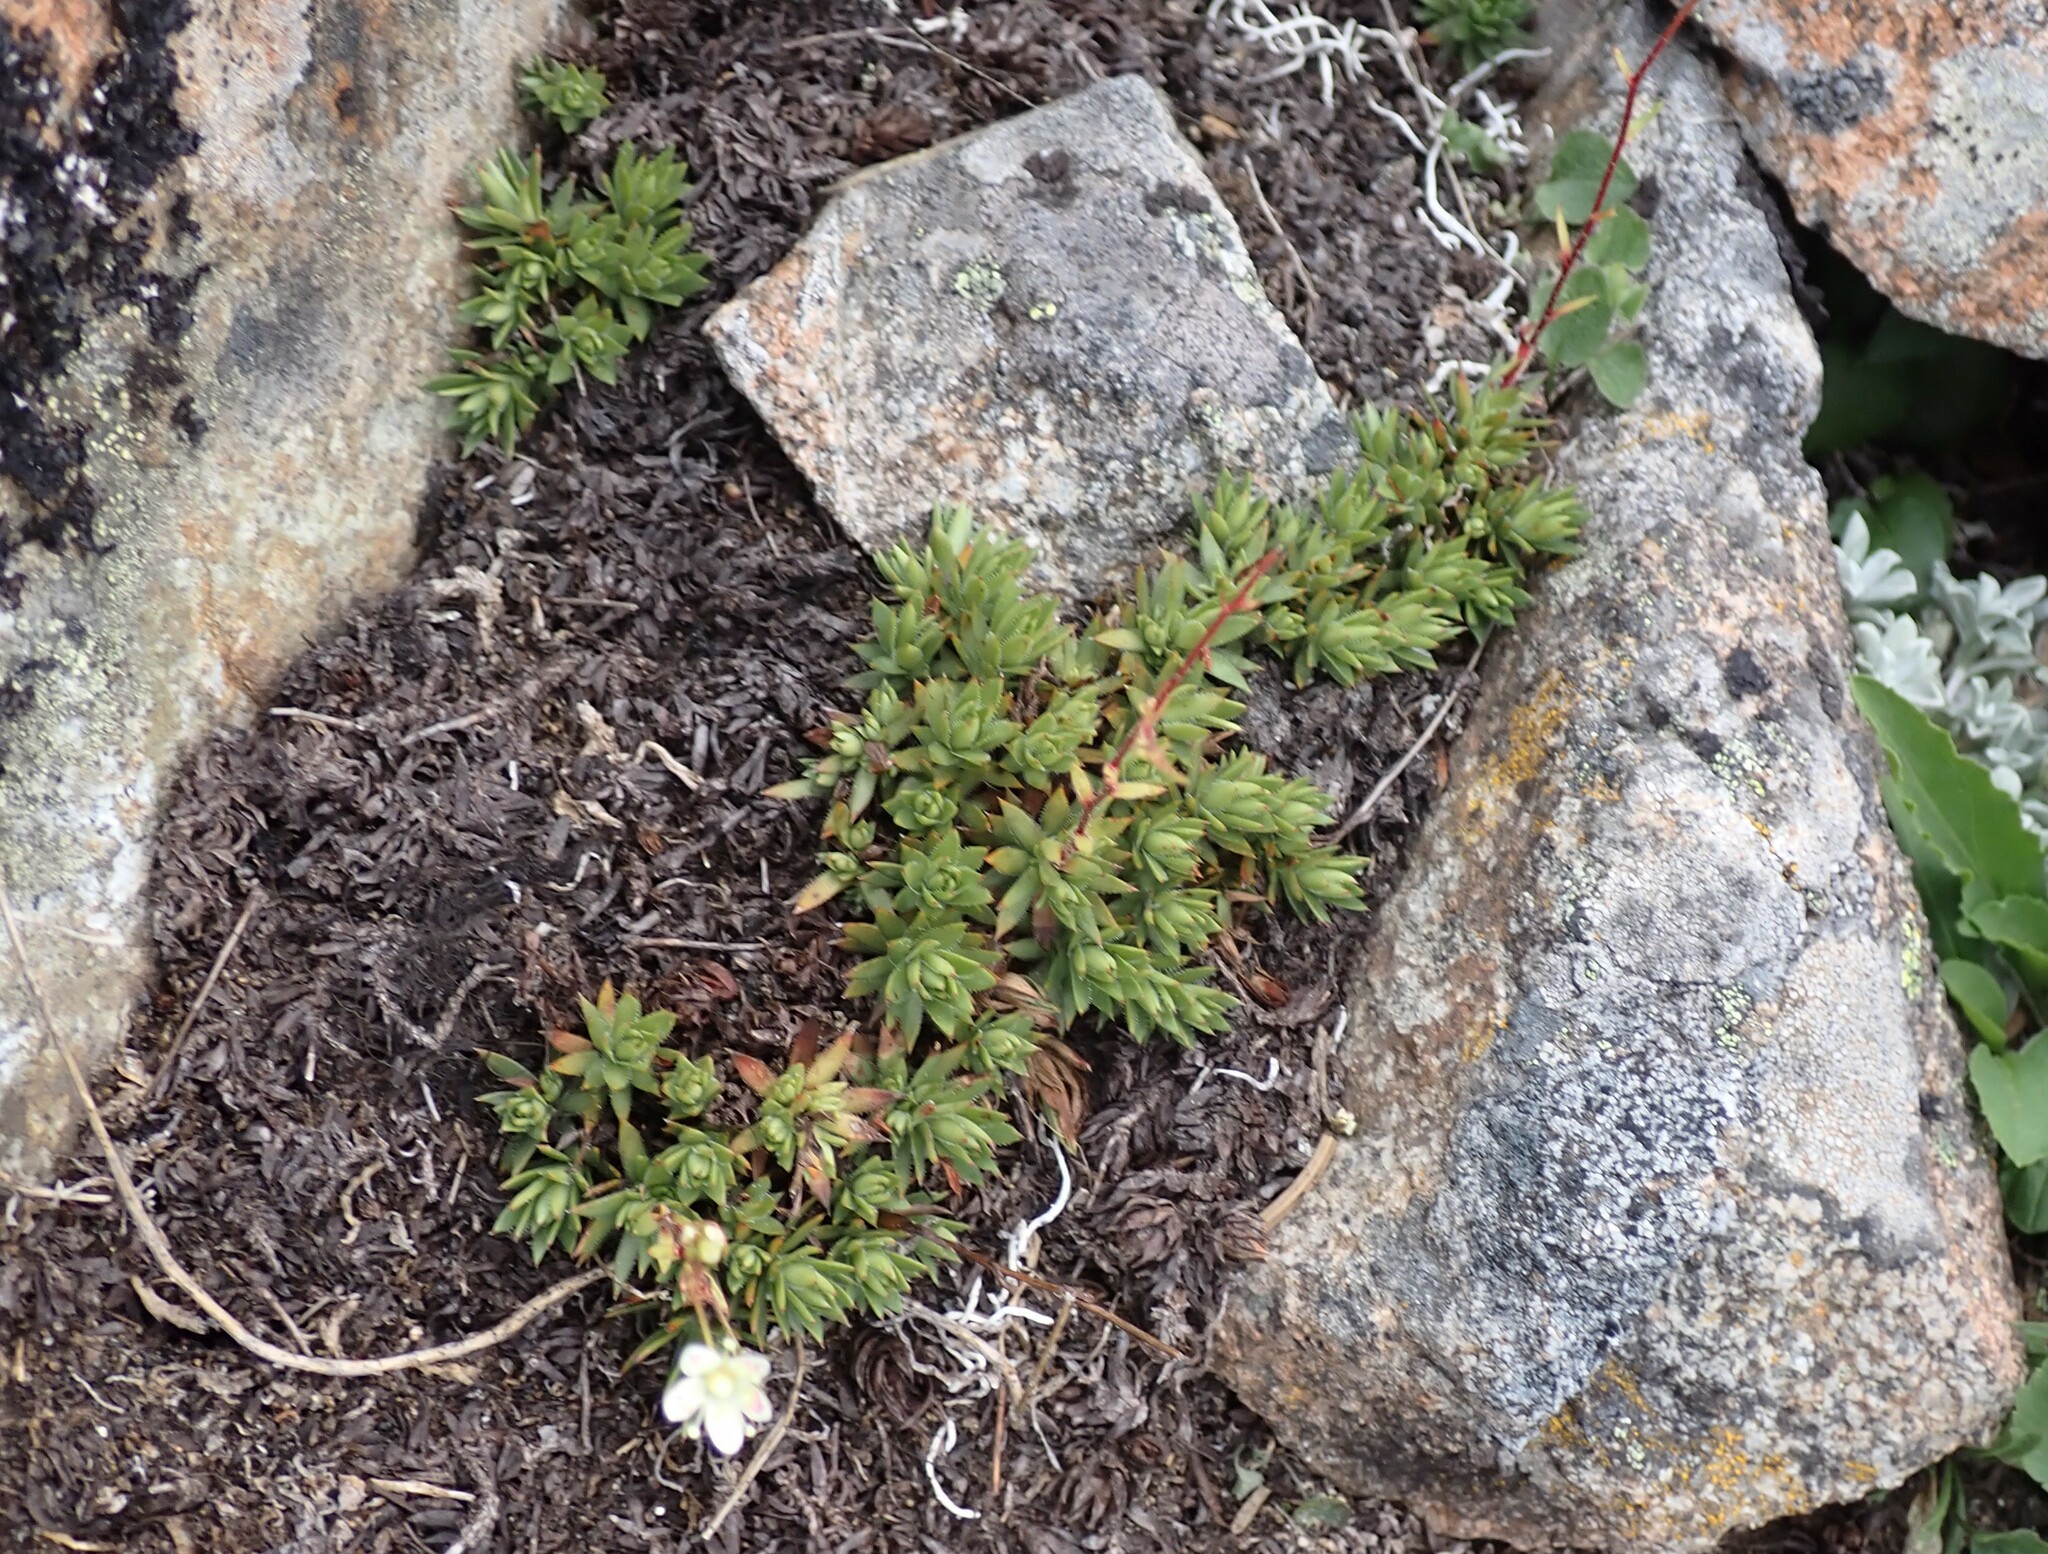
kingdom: Plantae
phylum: Tracheophyta
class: Magnoliopsida
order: Saxifragales
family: Saxifragaceae
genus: Saxifraga
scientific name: Saxifraga bronchialis
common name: Matted saxifrage
